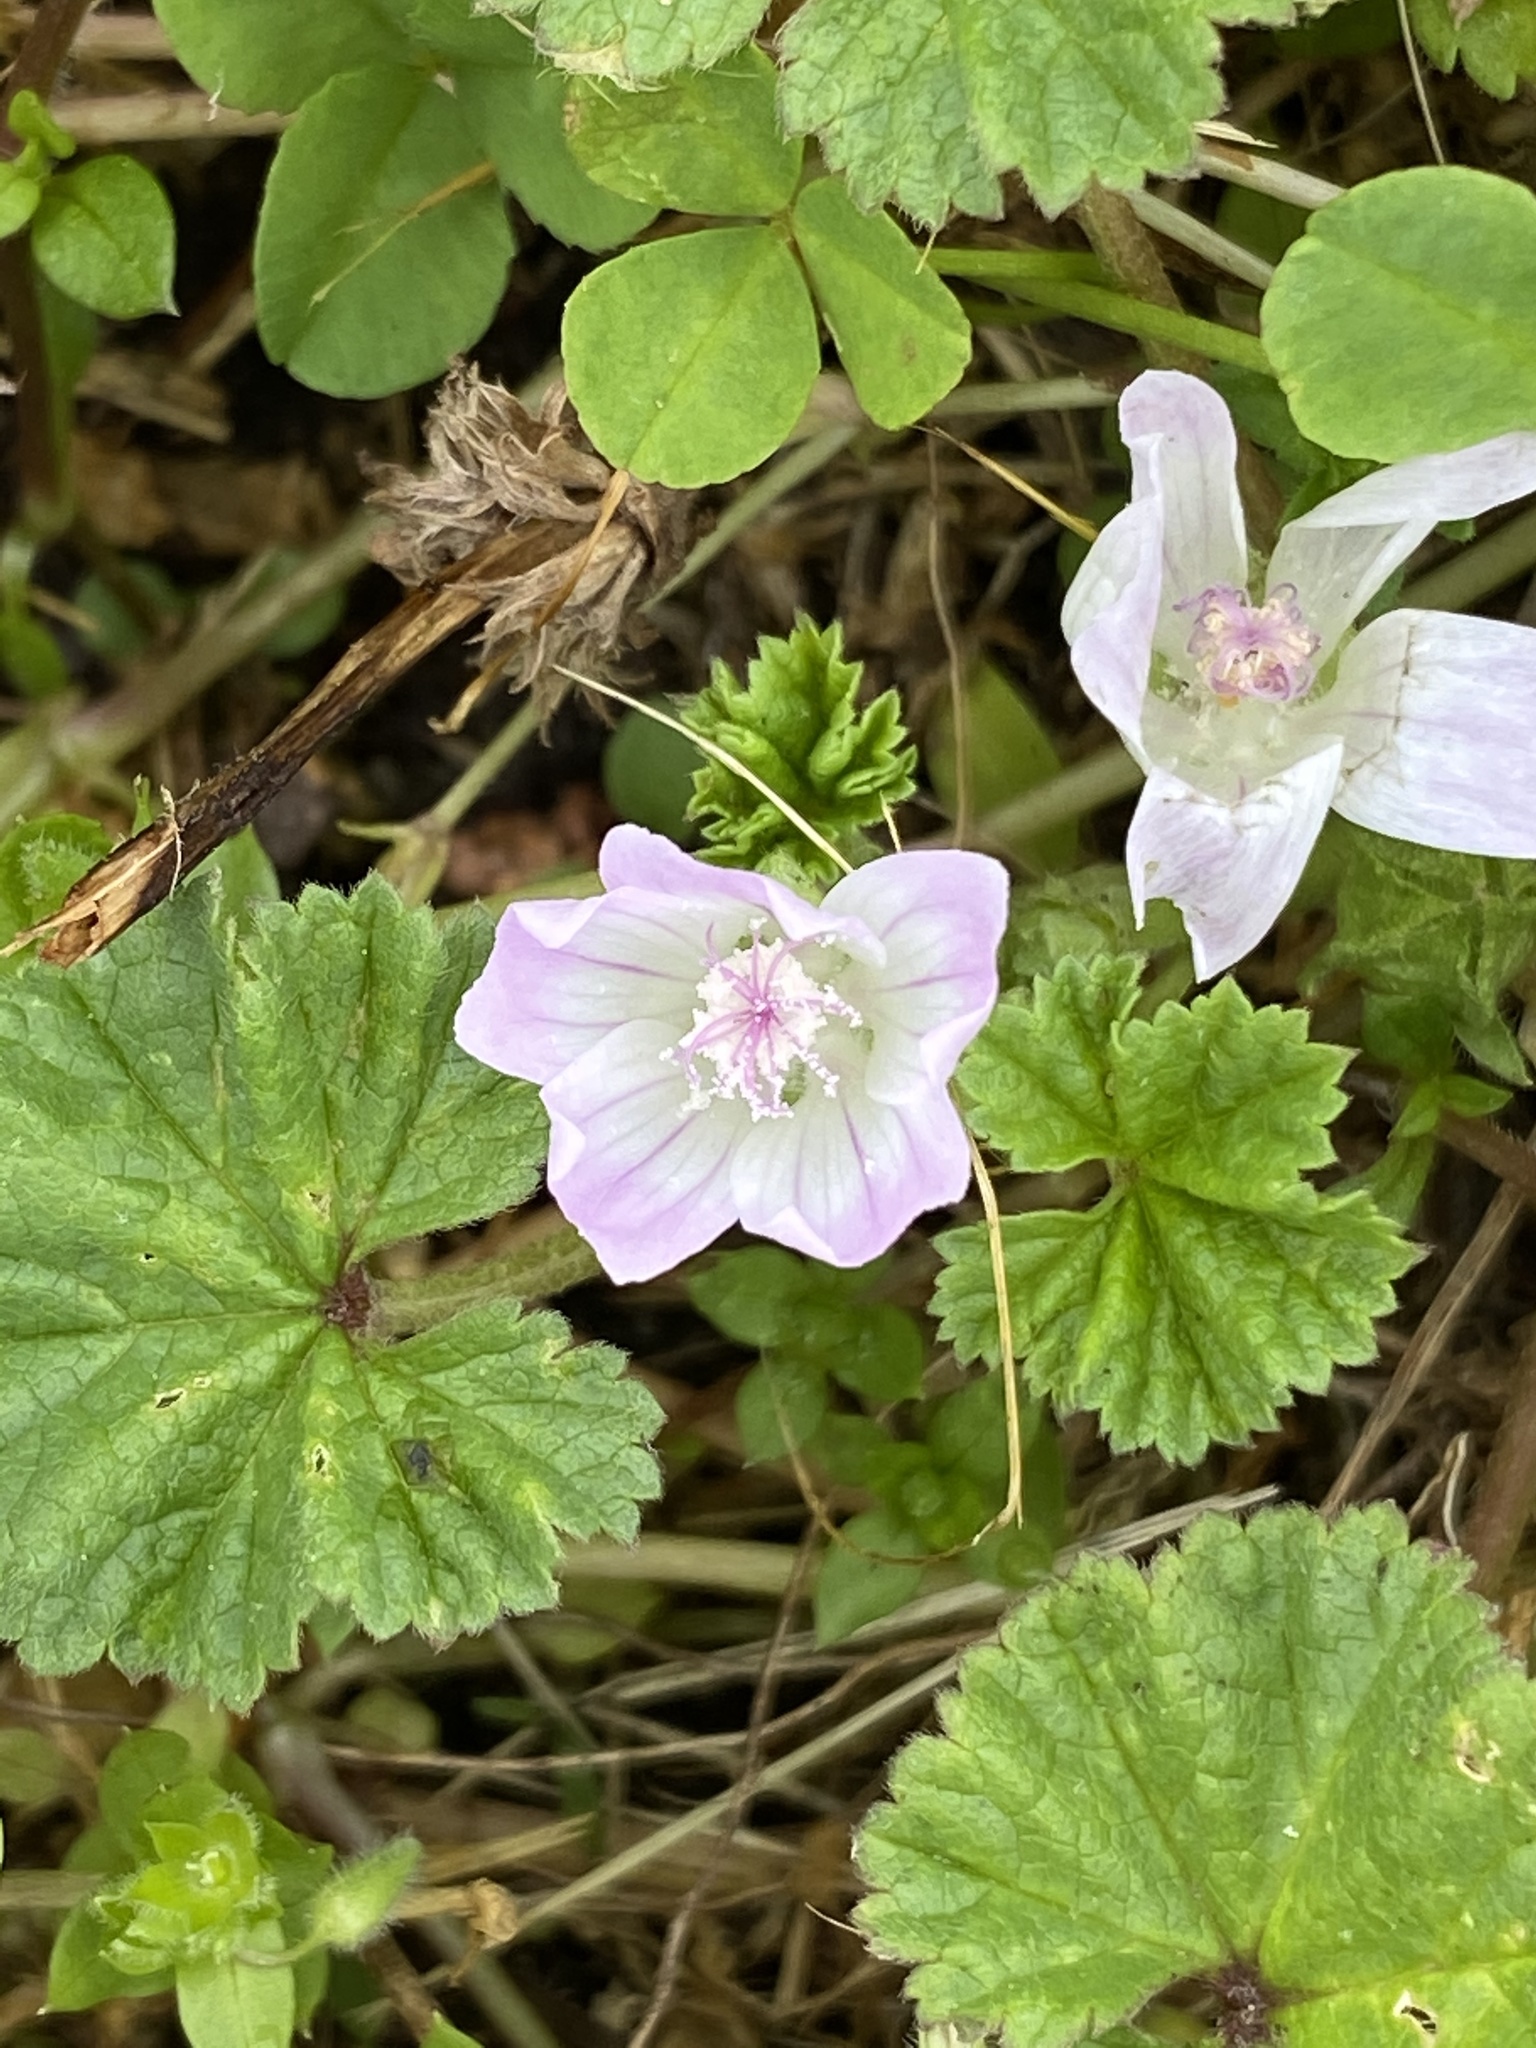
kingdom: Plantae
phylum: Tracheophyta
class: Magnoliopsida
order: Malvales
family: Malvaceae
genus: Malva
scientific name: Malva neglecta
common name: Common mallow
